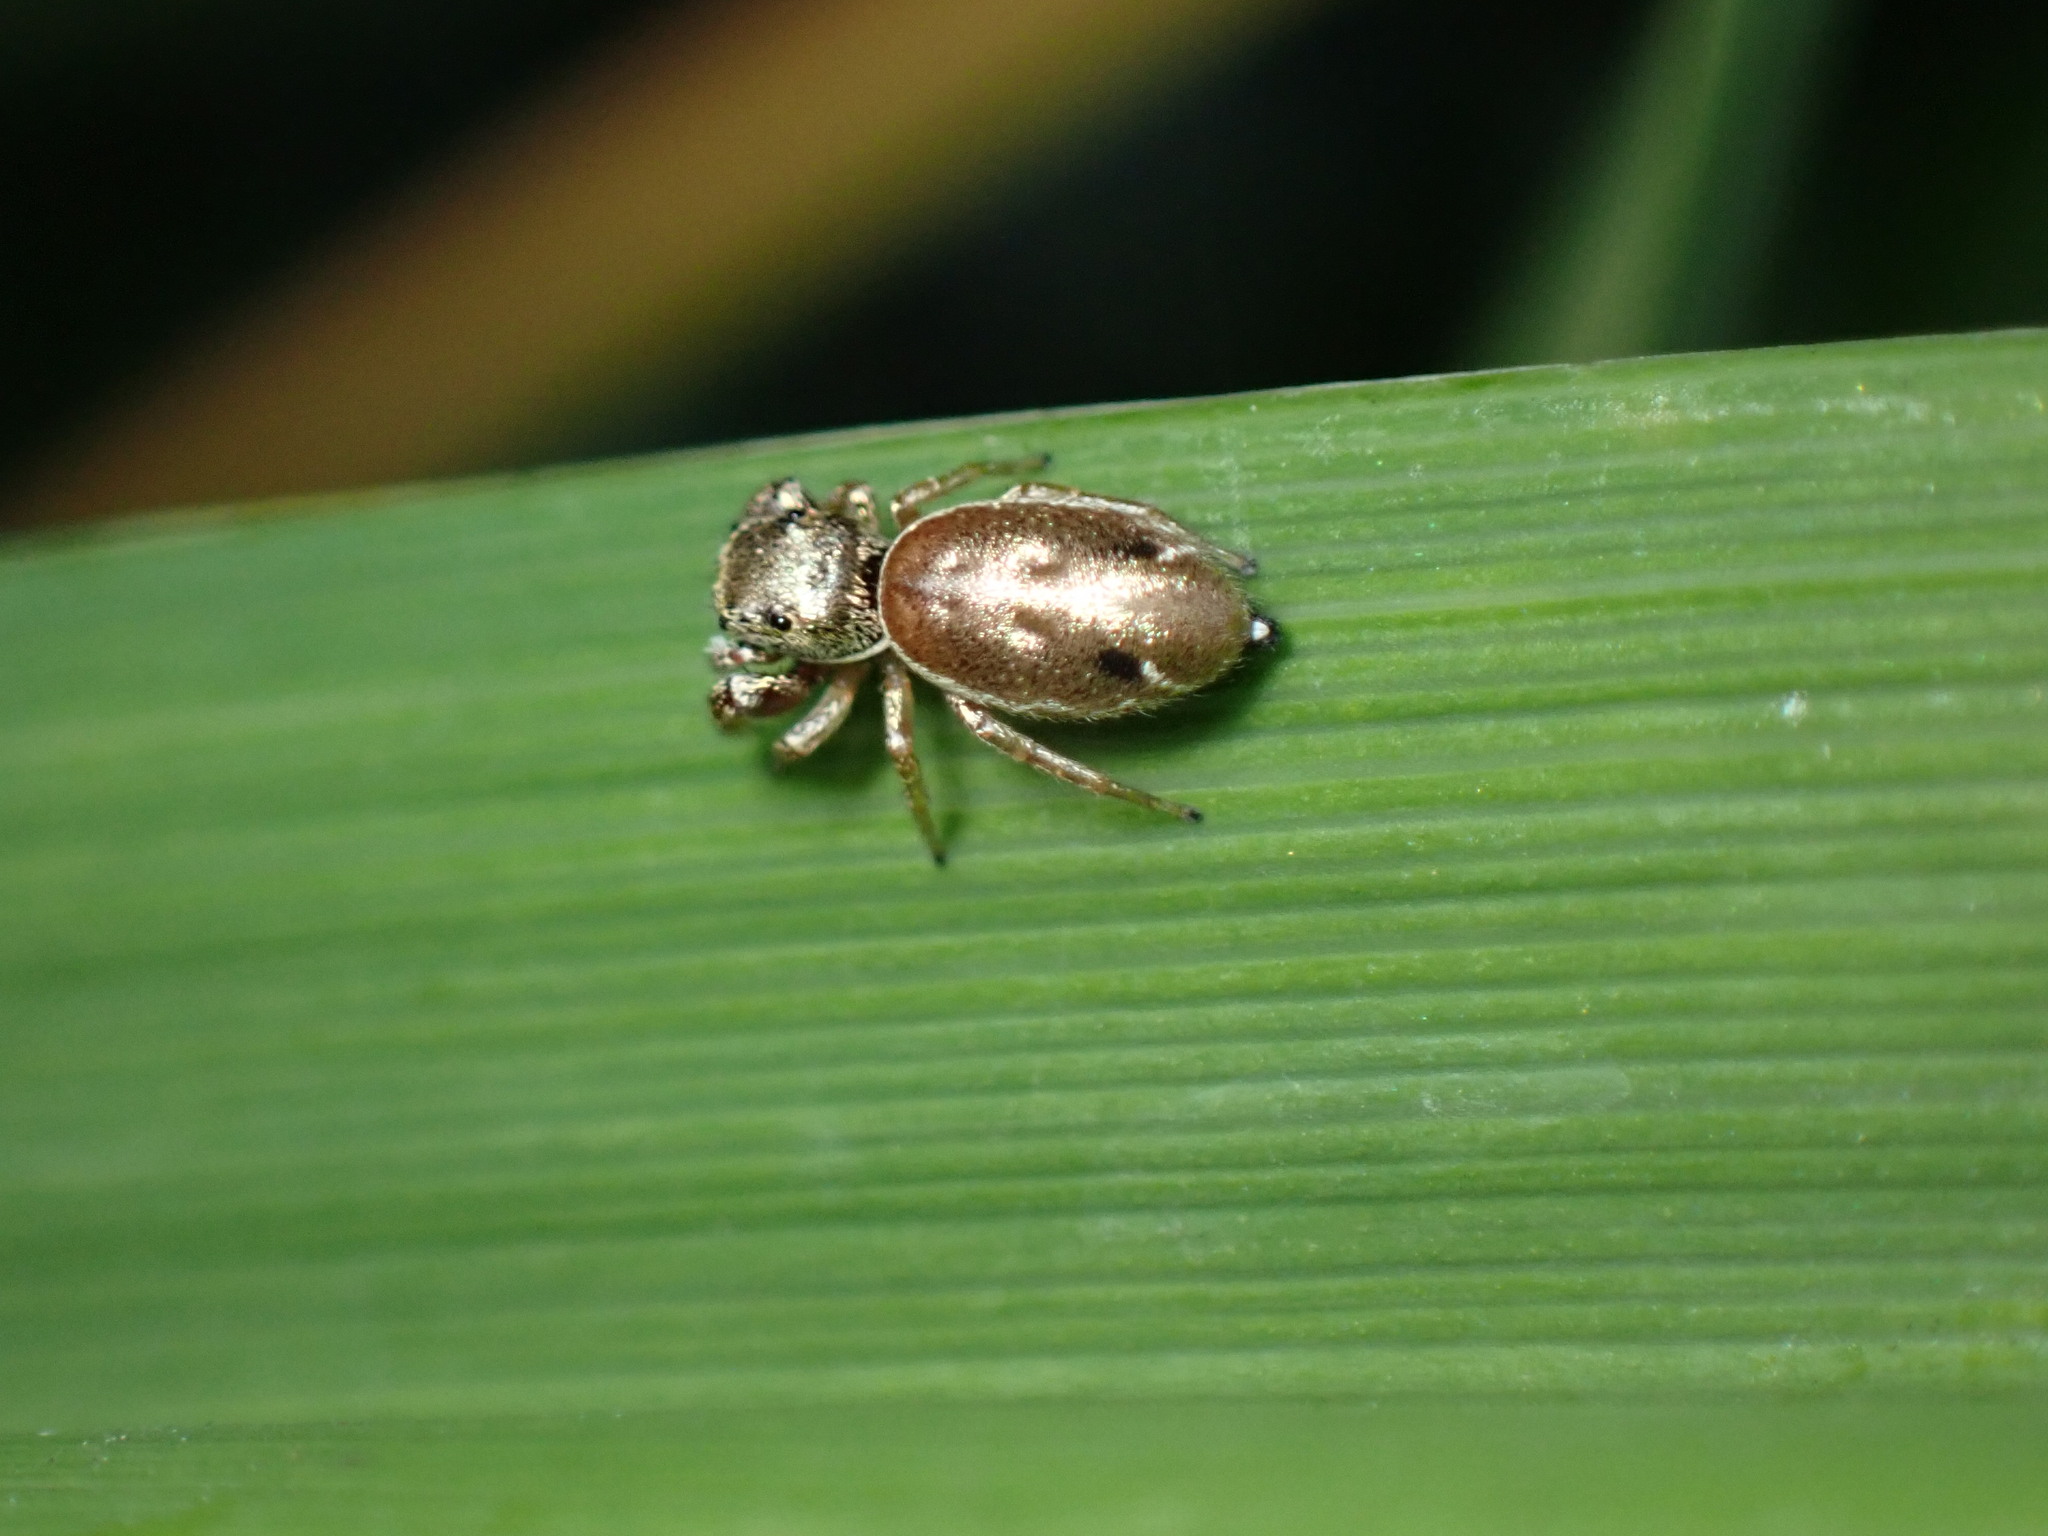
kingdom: Animalia
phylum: Arthropoda
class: Arachnida
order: Araneae
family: Salticidae
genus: Sassacus
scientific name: Sassacus vitis
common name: Jumping spiders
